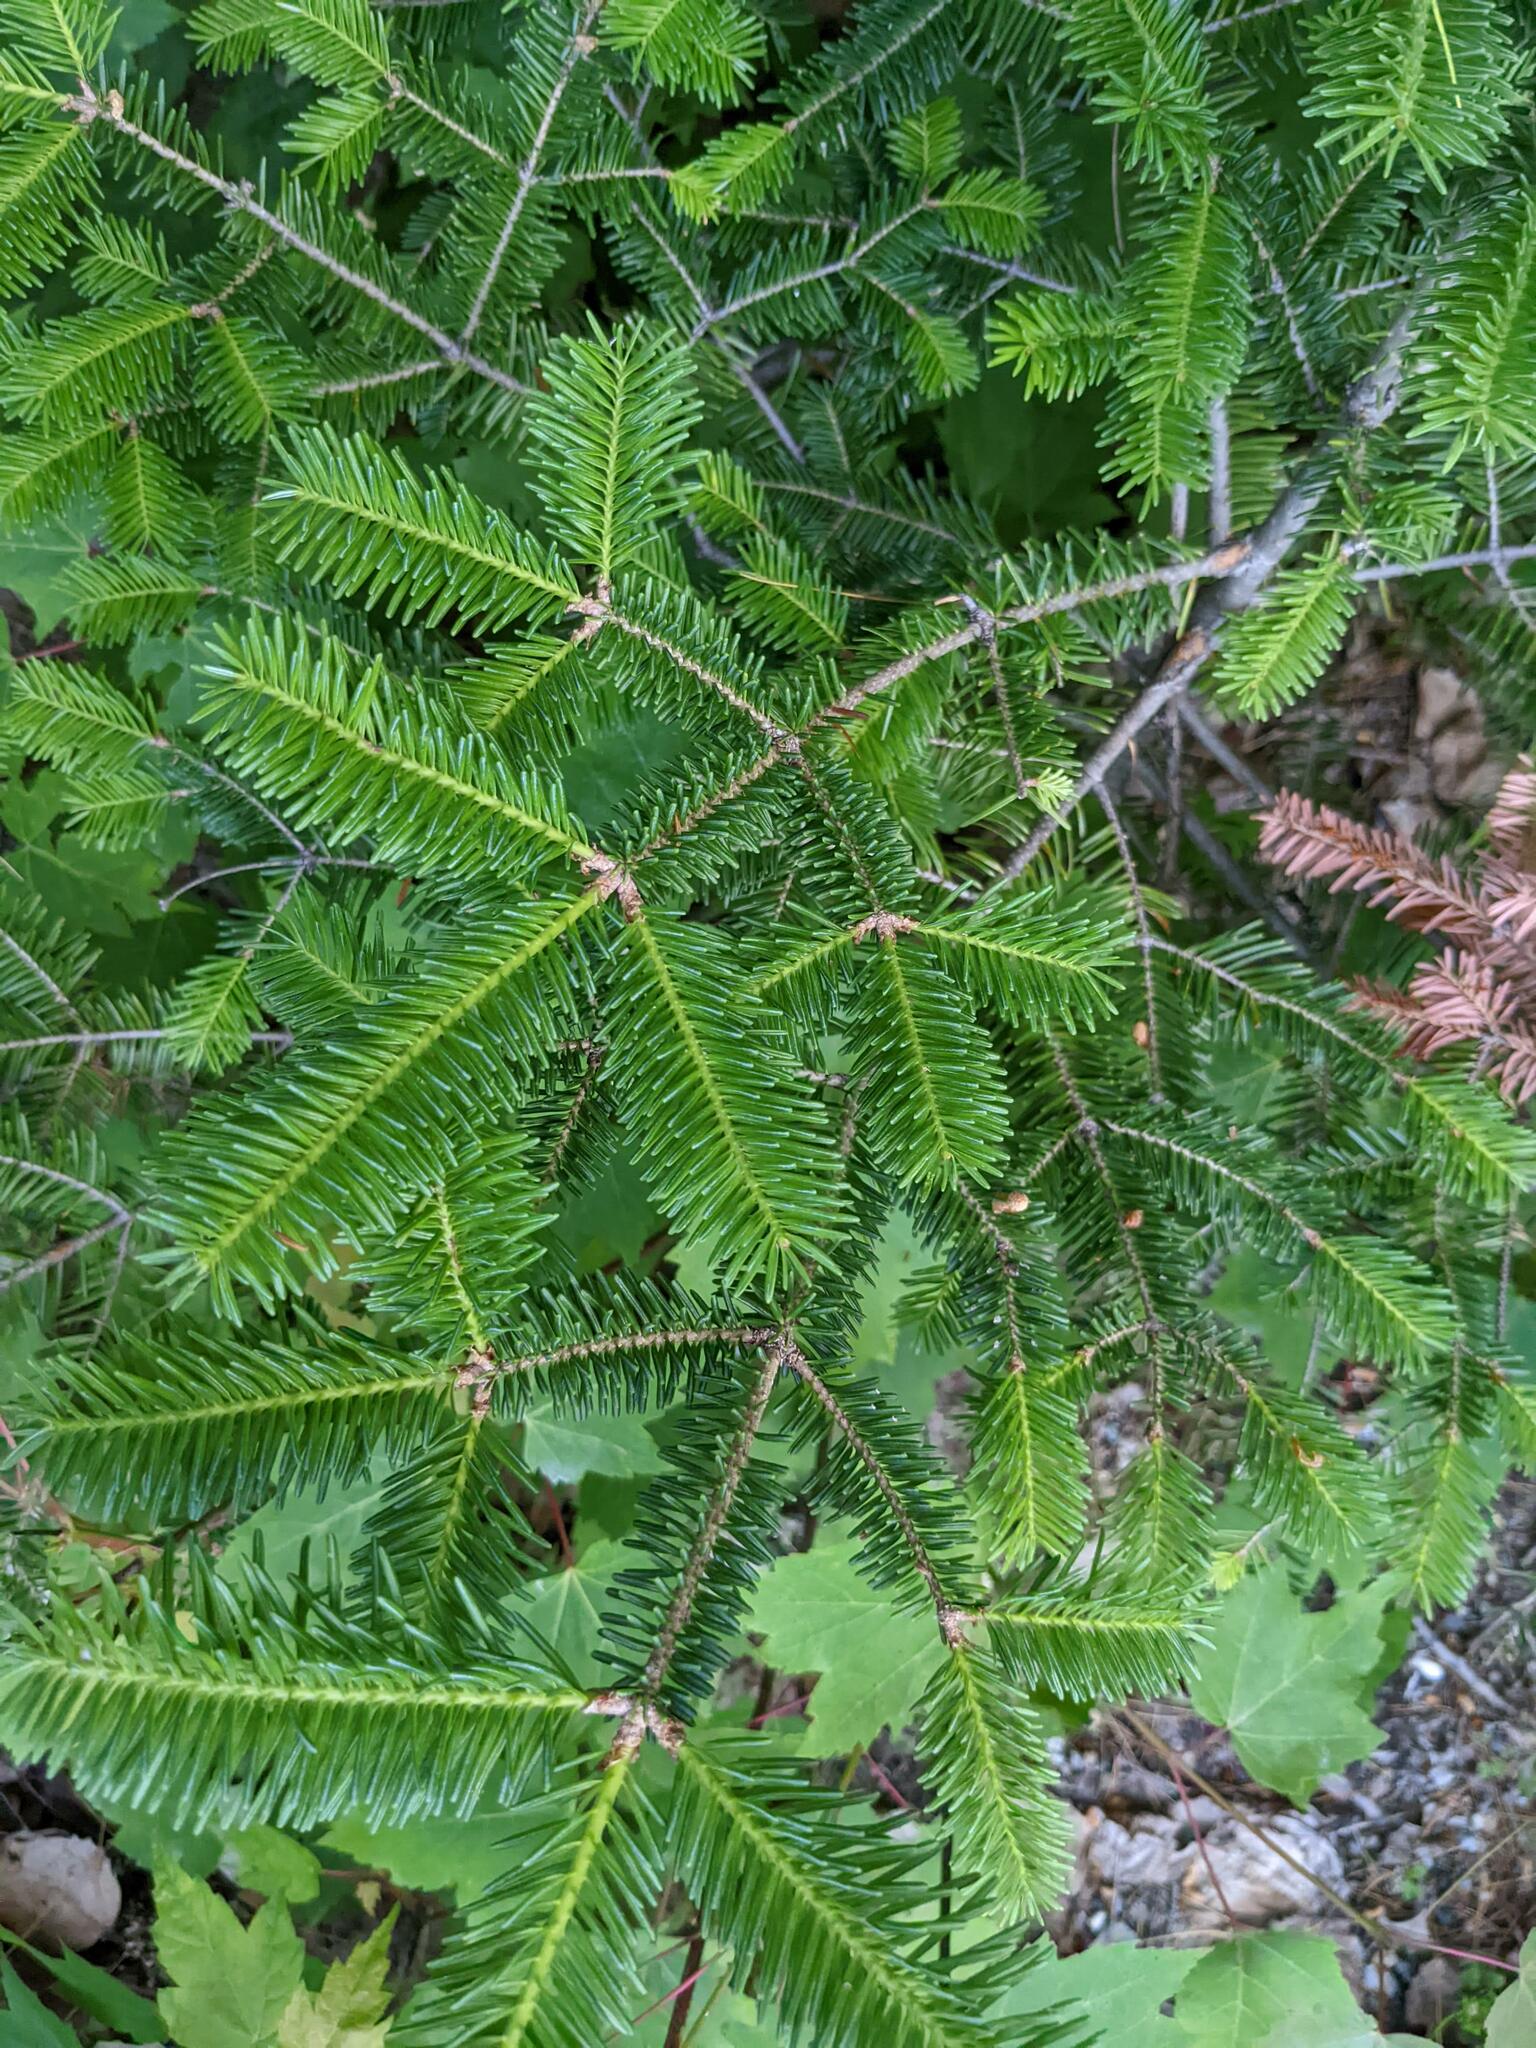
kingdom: Plantae
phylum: Tracheophyta
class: Pinopsida
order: Pinales
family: Pinaceae
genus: Abies
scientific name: Abies balsamea
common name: Balsam fir
